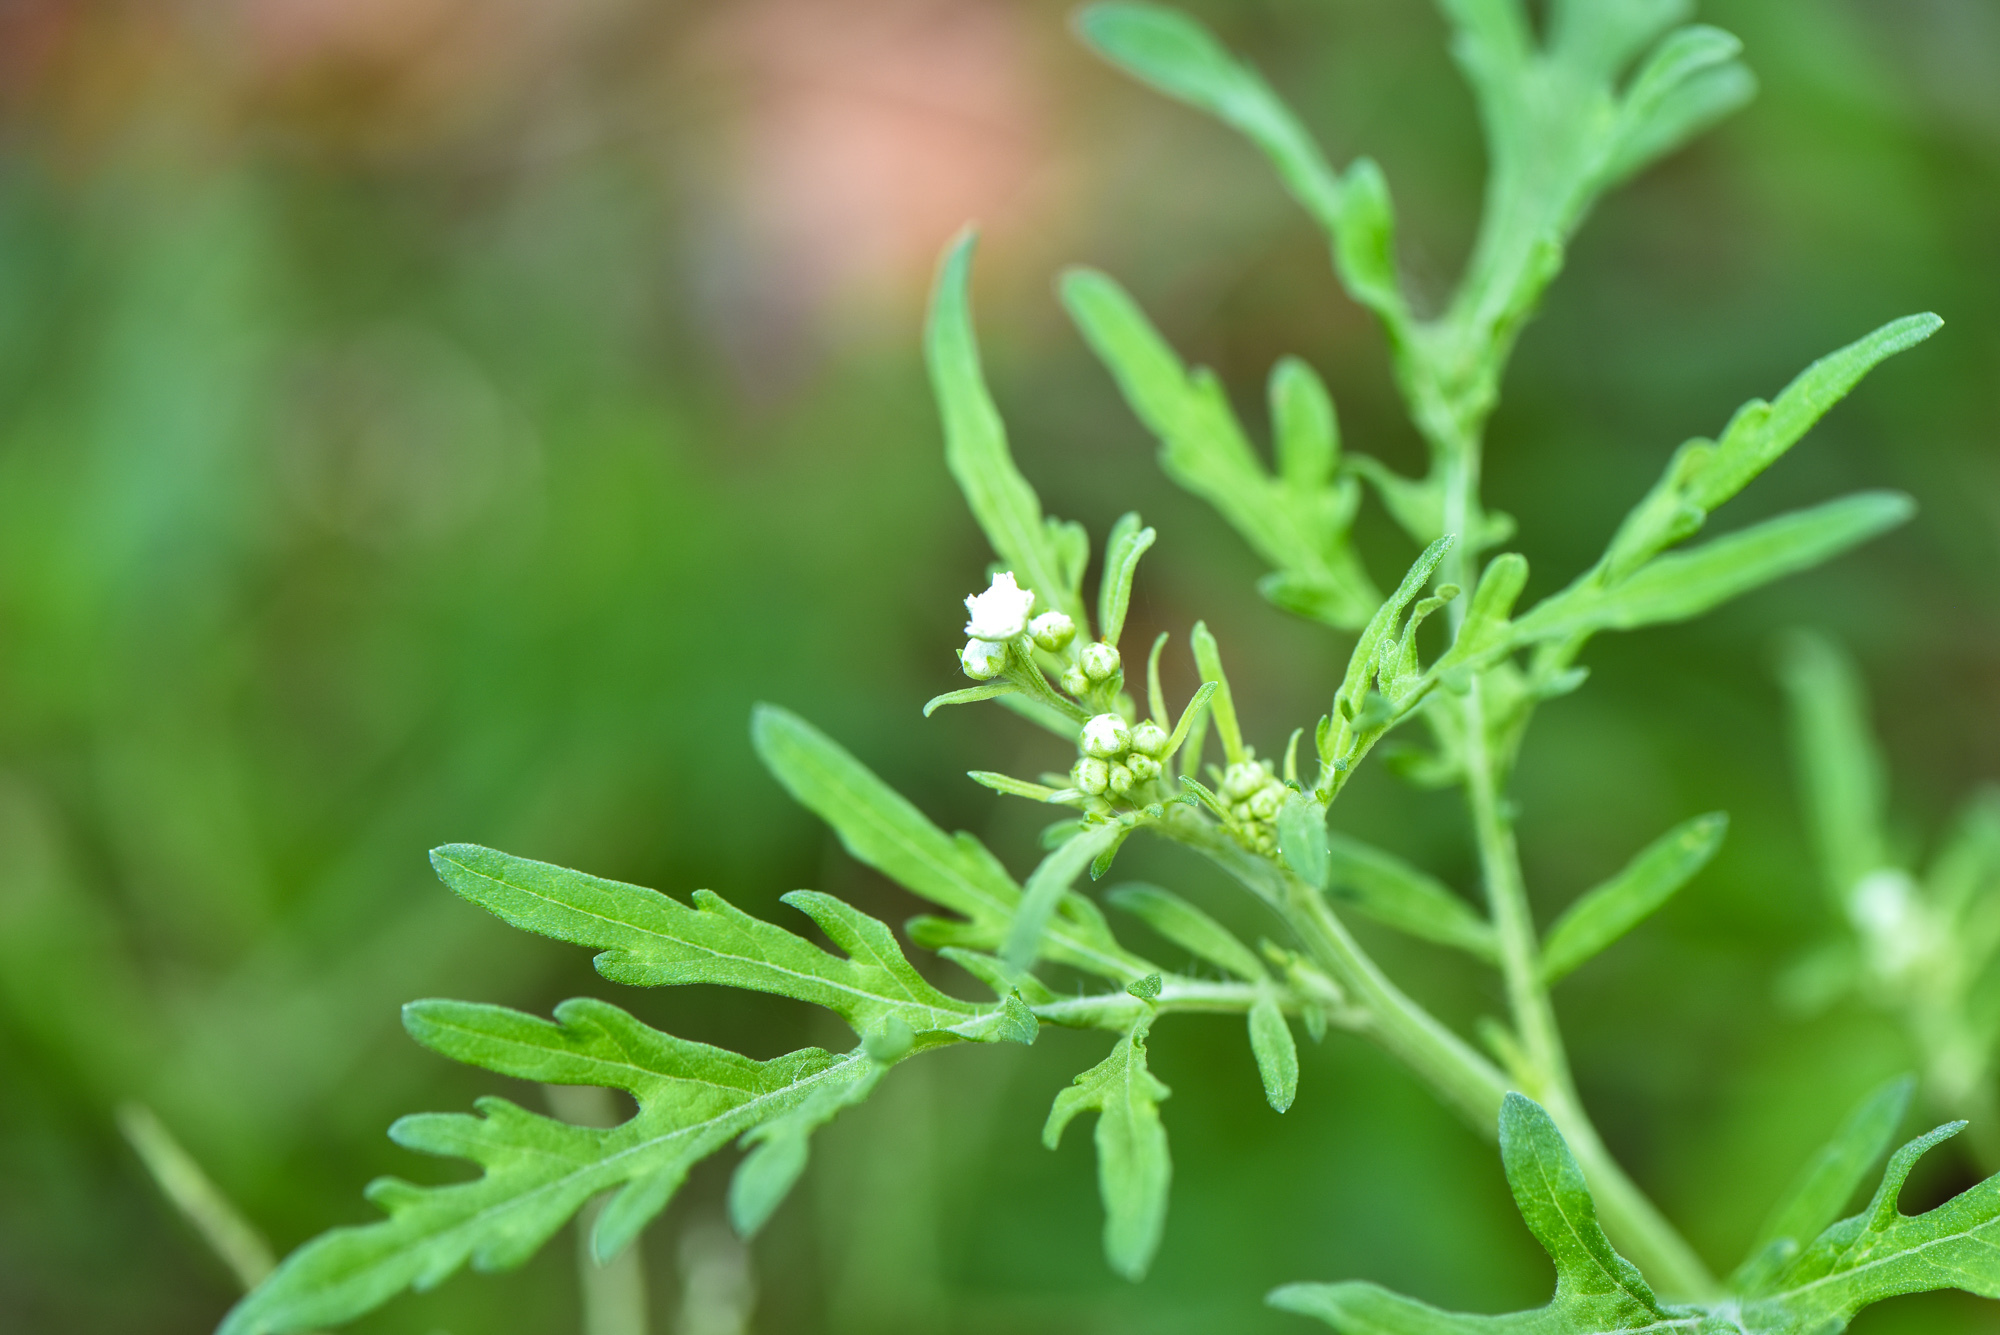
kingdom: Plantae
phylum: Tracheophyta
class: Magnoliopsida
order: Asterales
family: Asteraceae
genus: Parthenium
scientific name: Parthenium hysterophorus
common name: Santa maria feverfew
